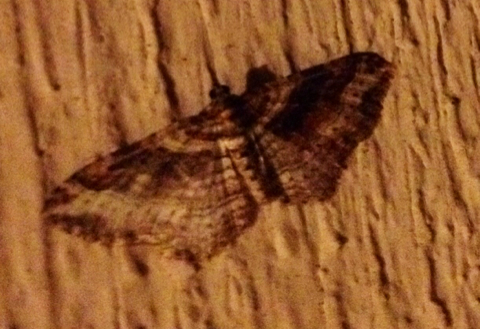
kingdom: Animalia
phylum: Arthropoda
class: Insecta
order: Lepidoptera
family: Geometridae
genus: Costaconvexa
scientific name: Costaconvexa centrostrigaria
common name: Bent-line carpet
